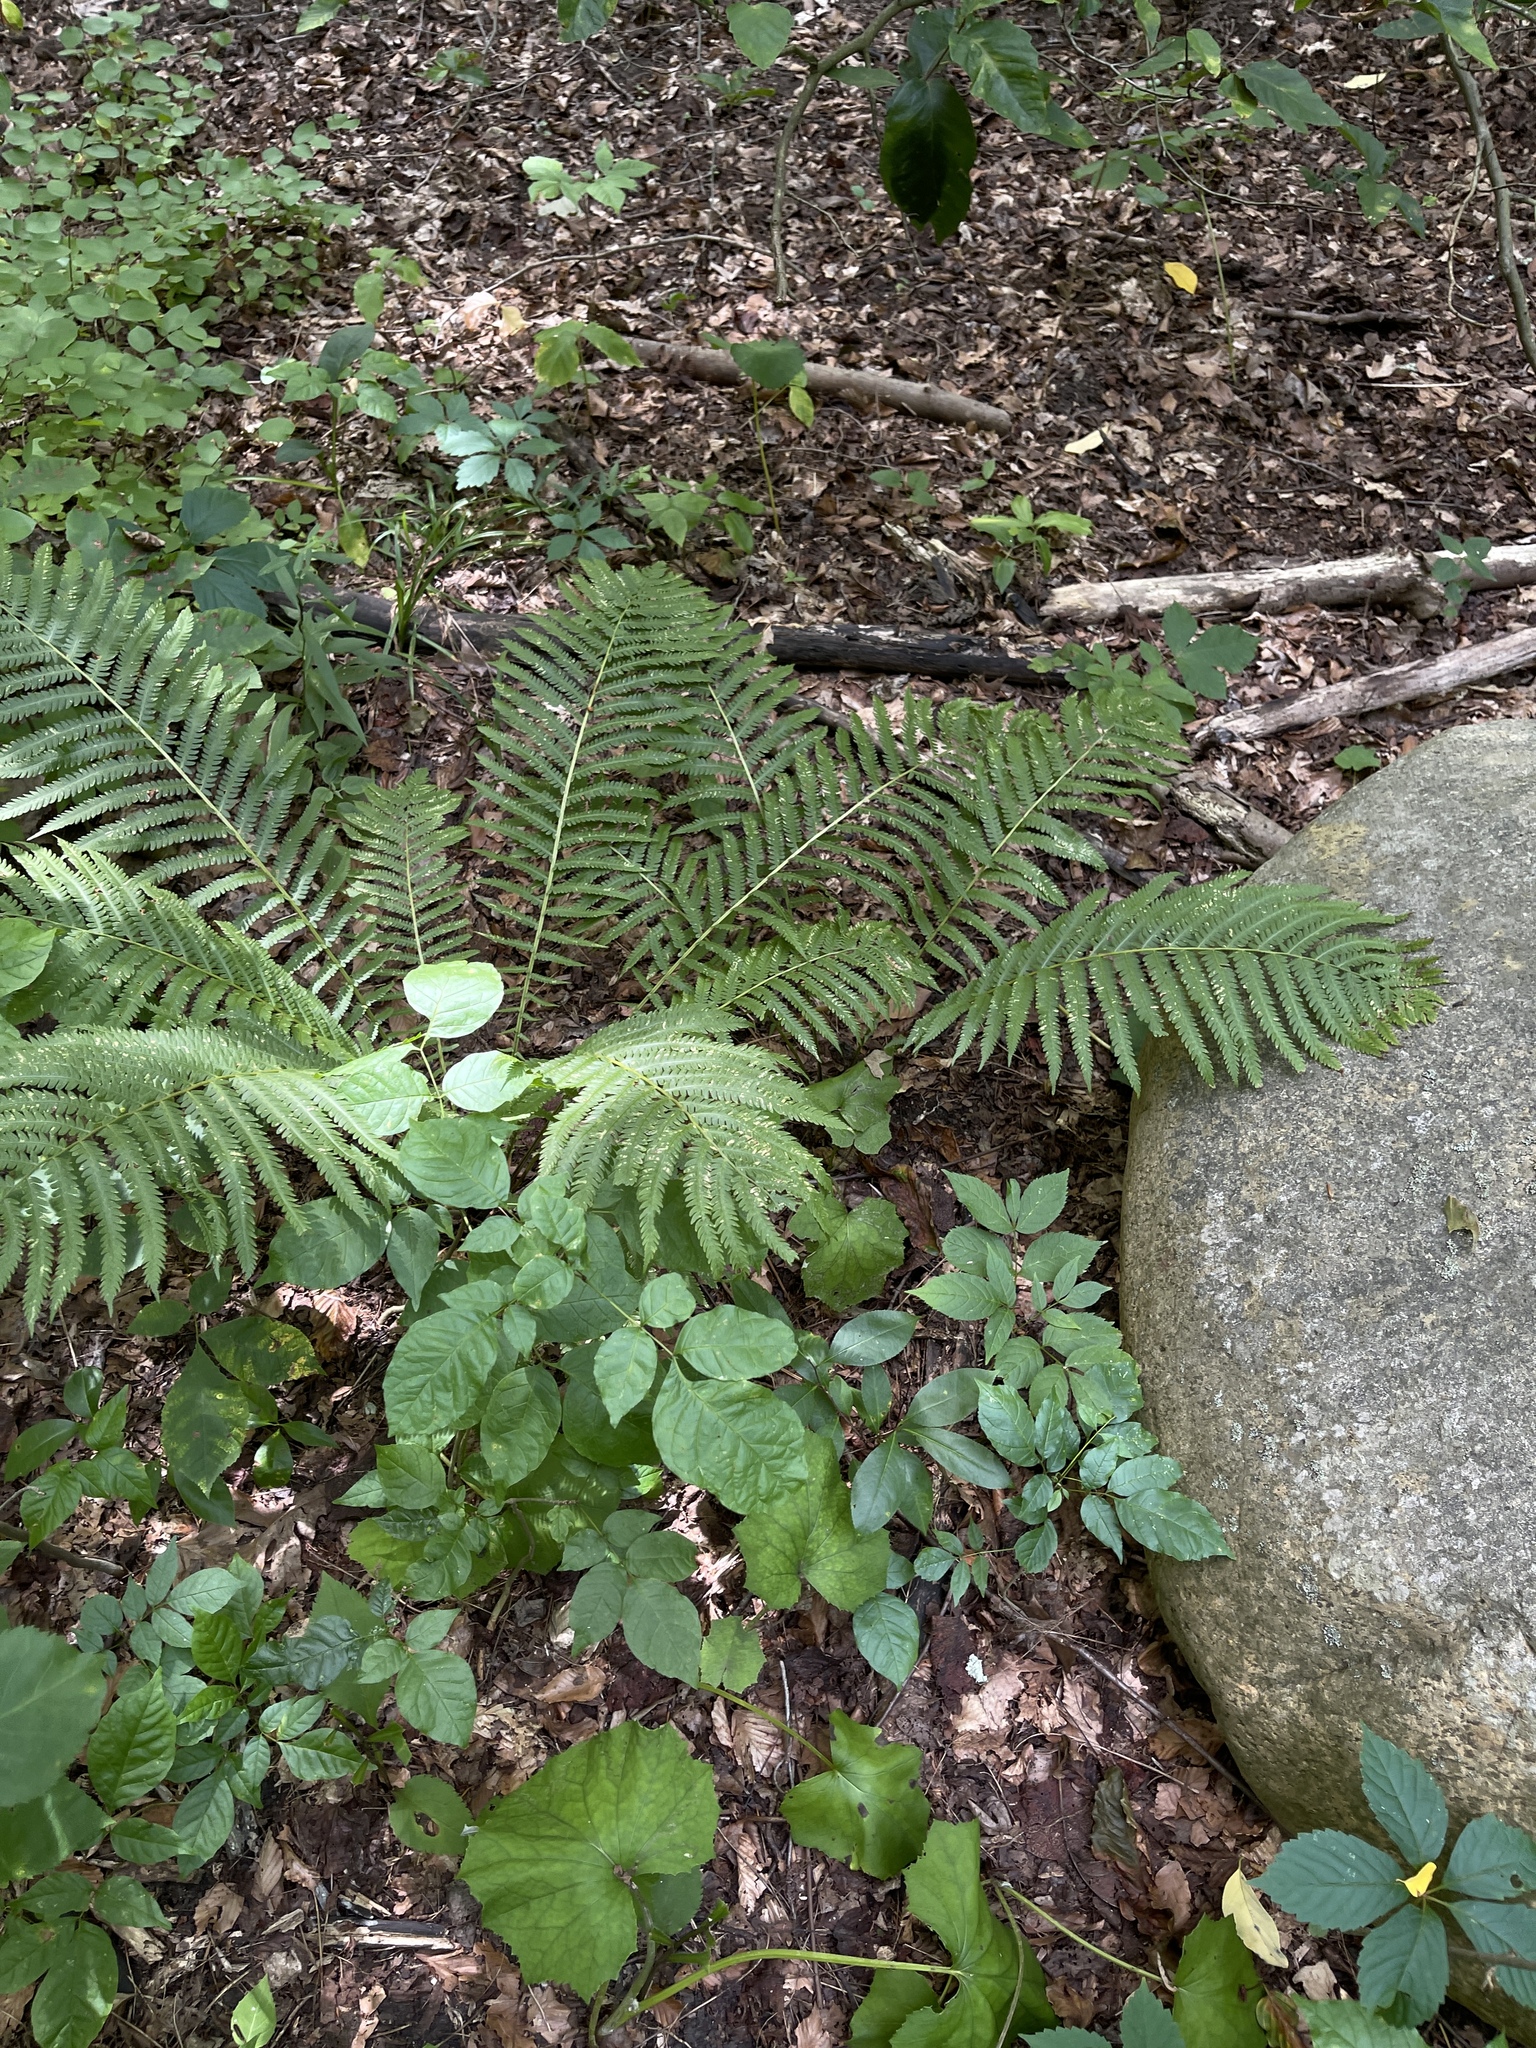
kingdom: Plantae
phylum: Tracheophyta
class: Polypodiopsida
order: Polypodiales
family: Onocleaceae
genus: Matteuccia
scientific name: Matteuccia struthiopteris
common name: Ostrich fern
